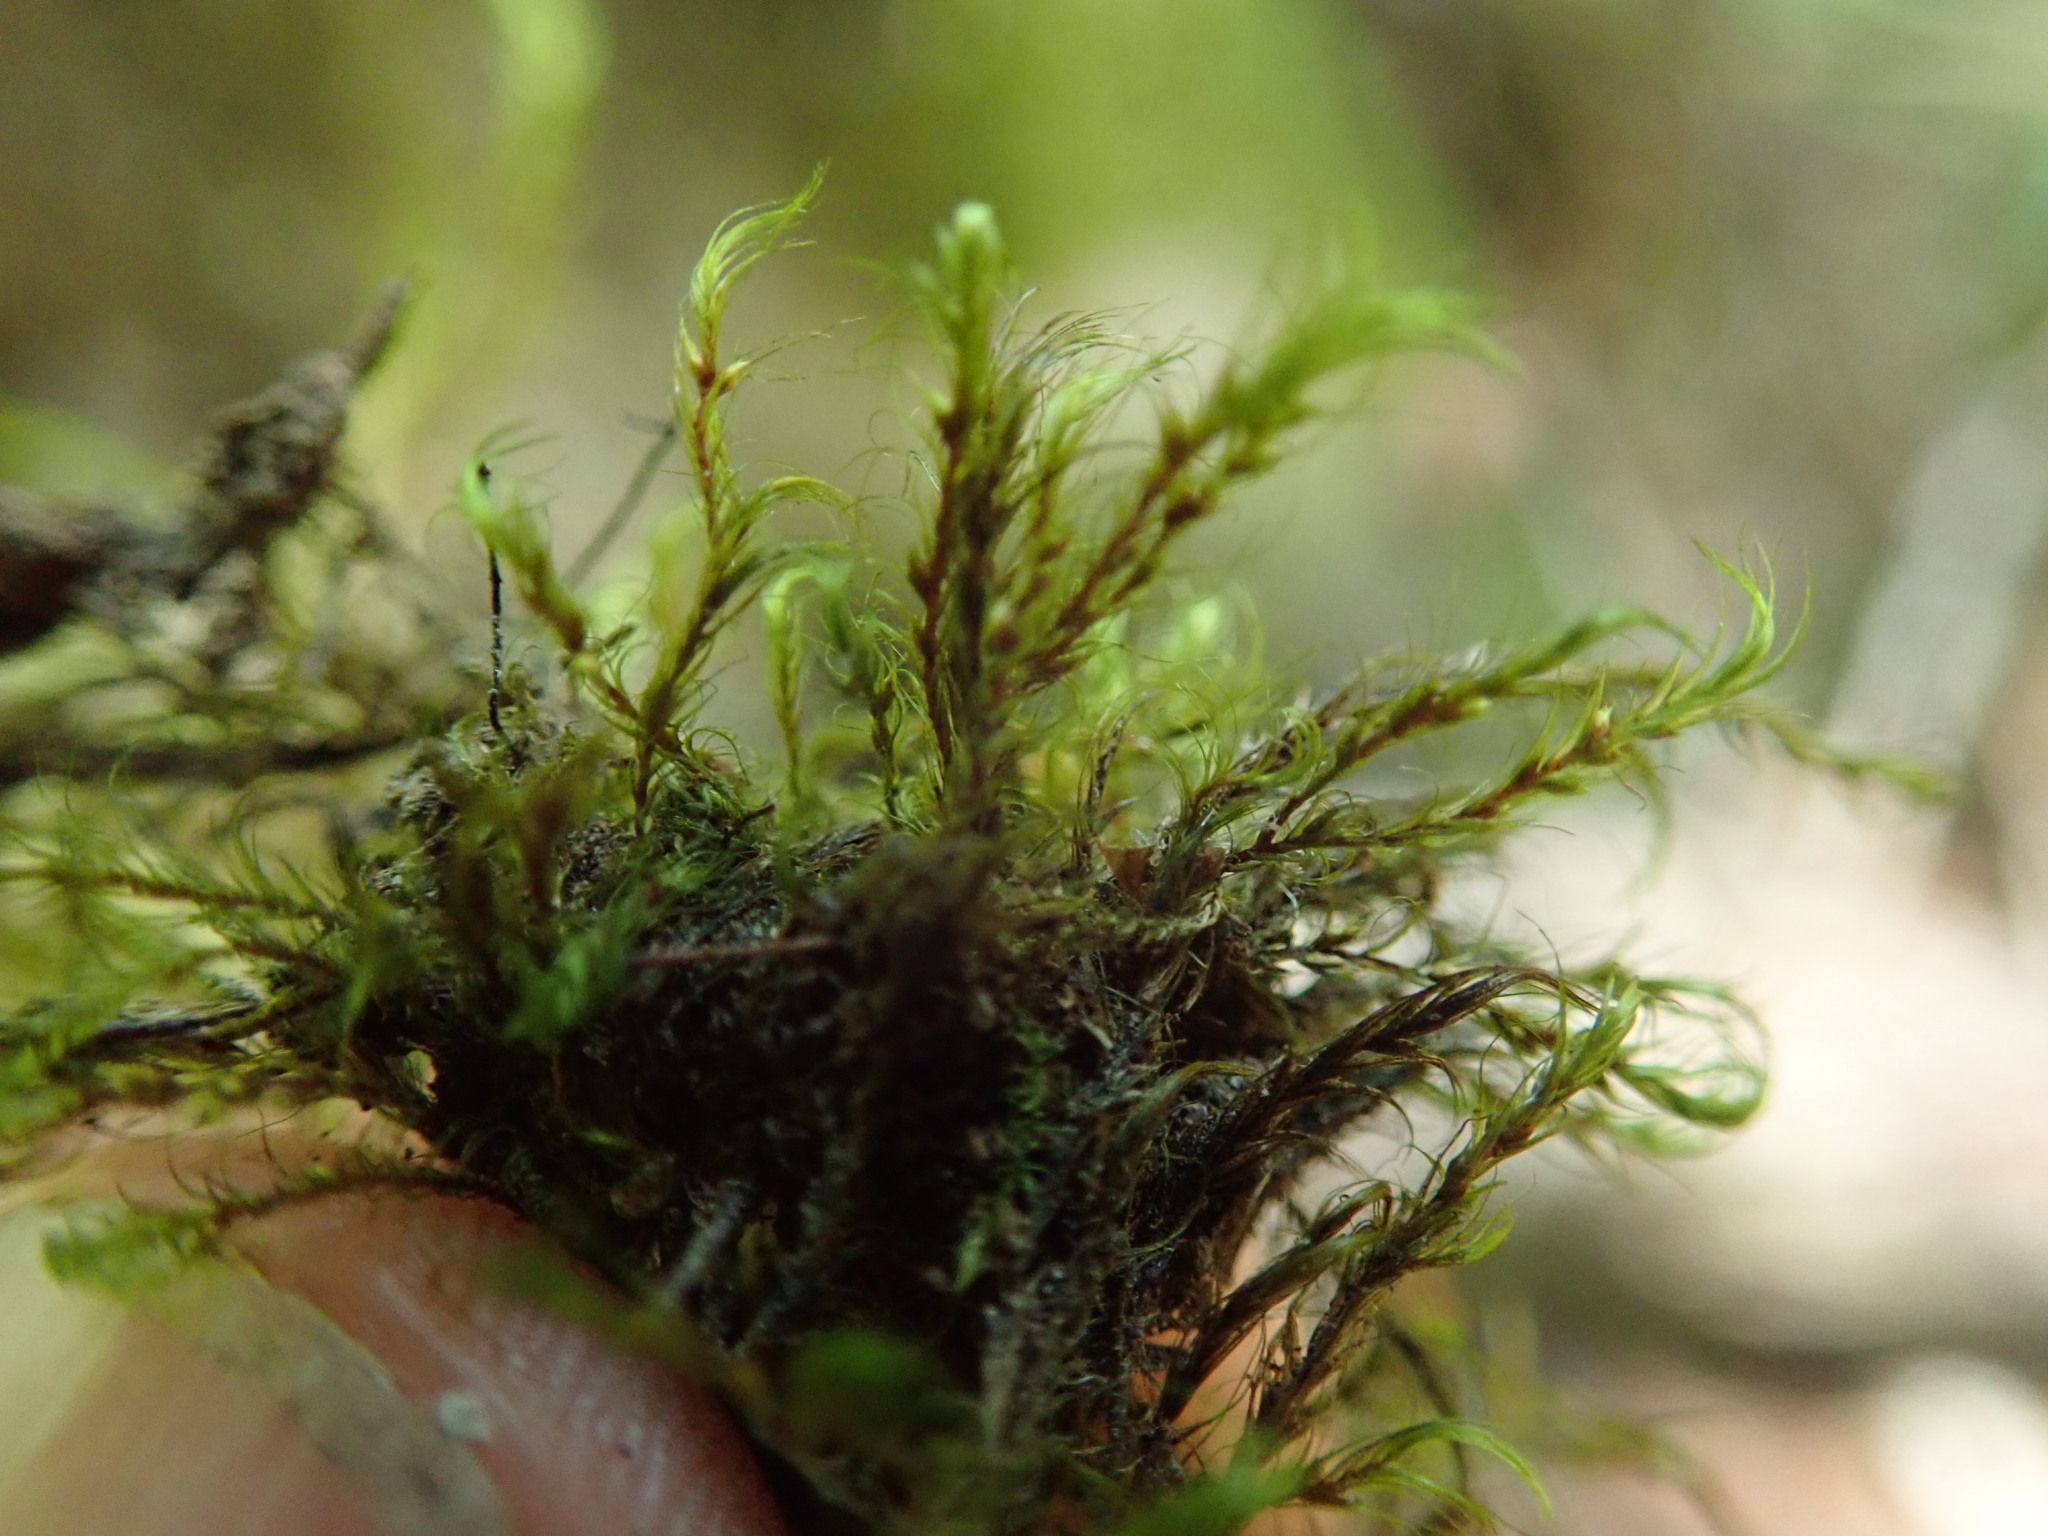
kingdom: Plantae
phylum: Bryophyta
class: Bryopsida
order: Hypnales
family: Fontinalaceae
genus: Dichelyma
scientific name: Dichelyma uncinatum
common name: Sickle-leaved claw moss
